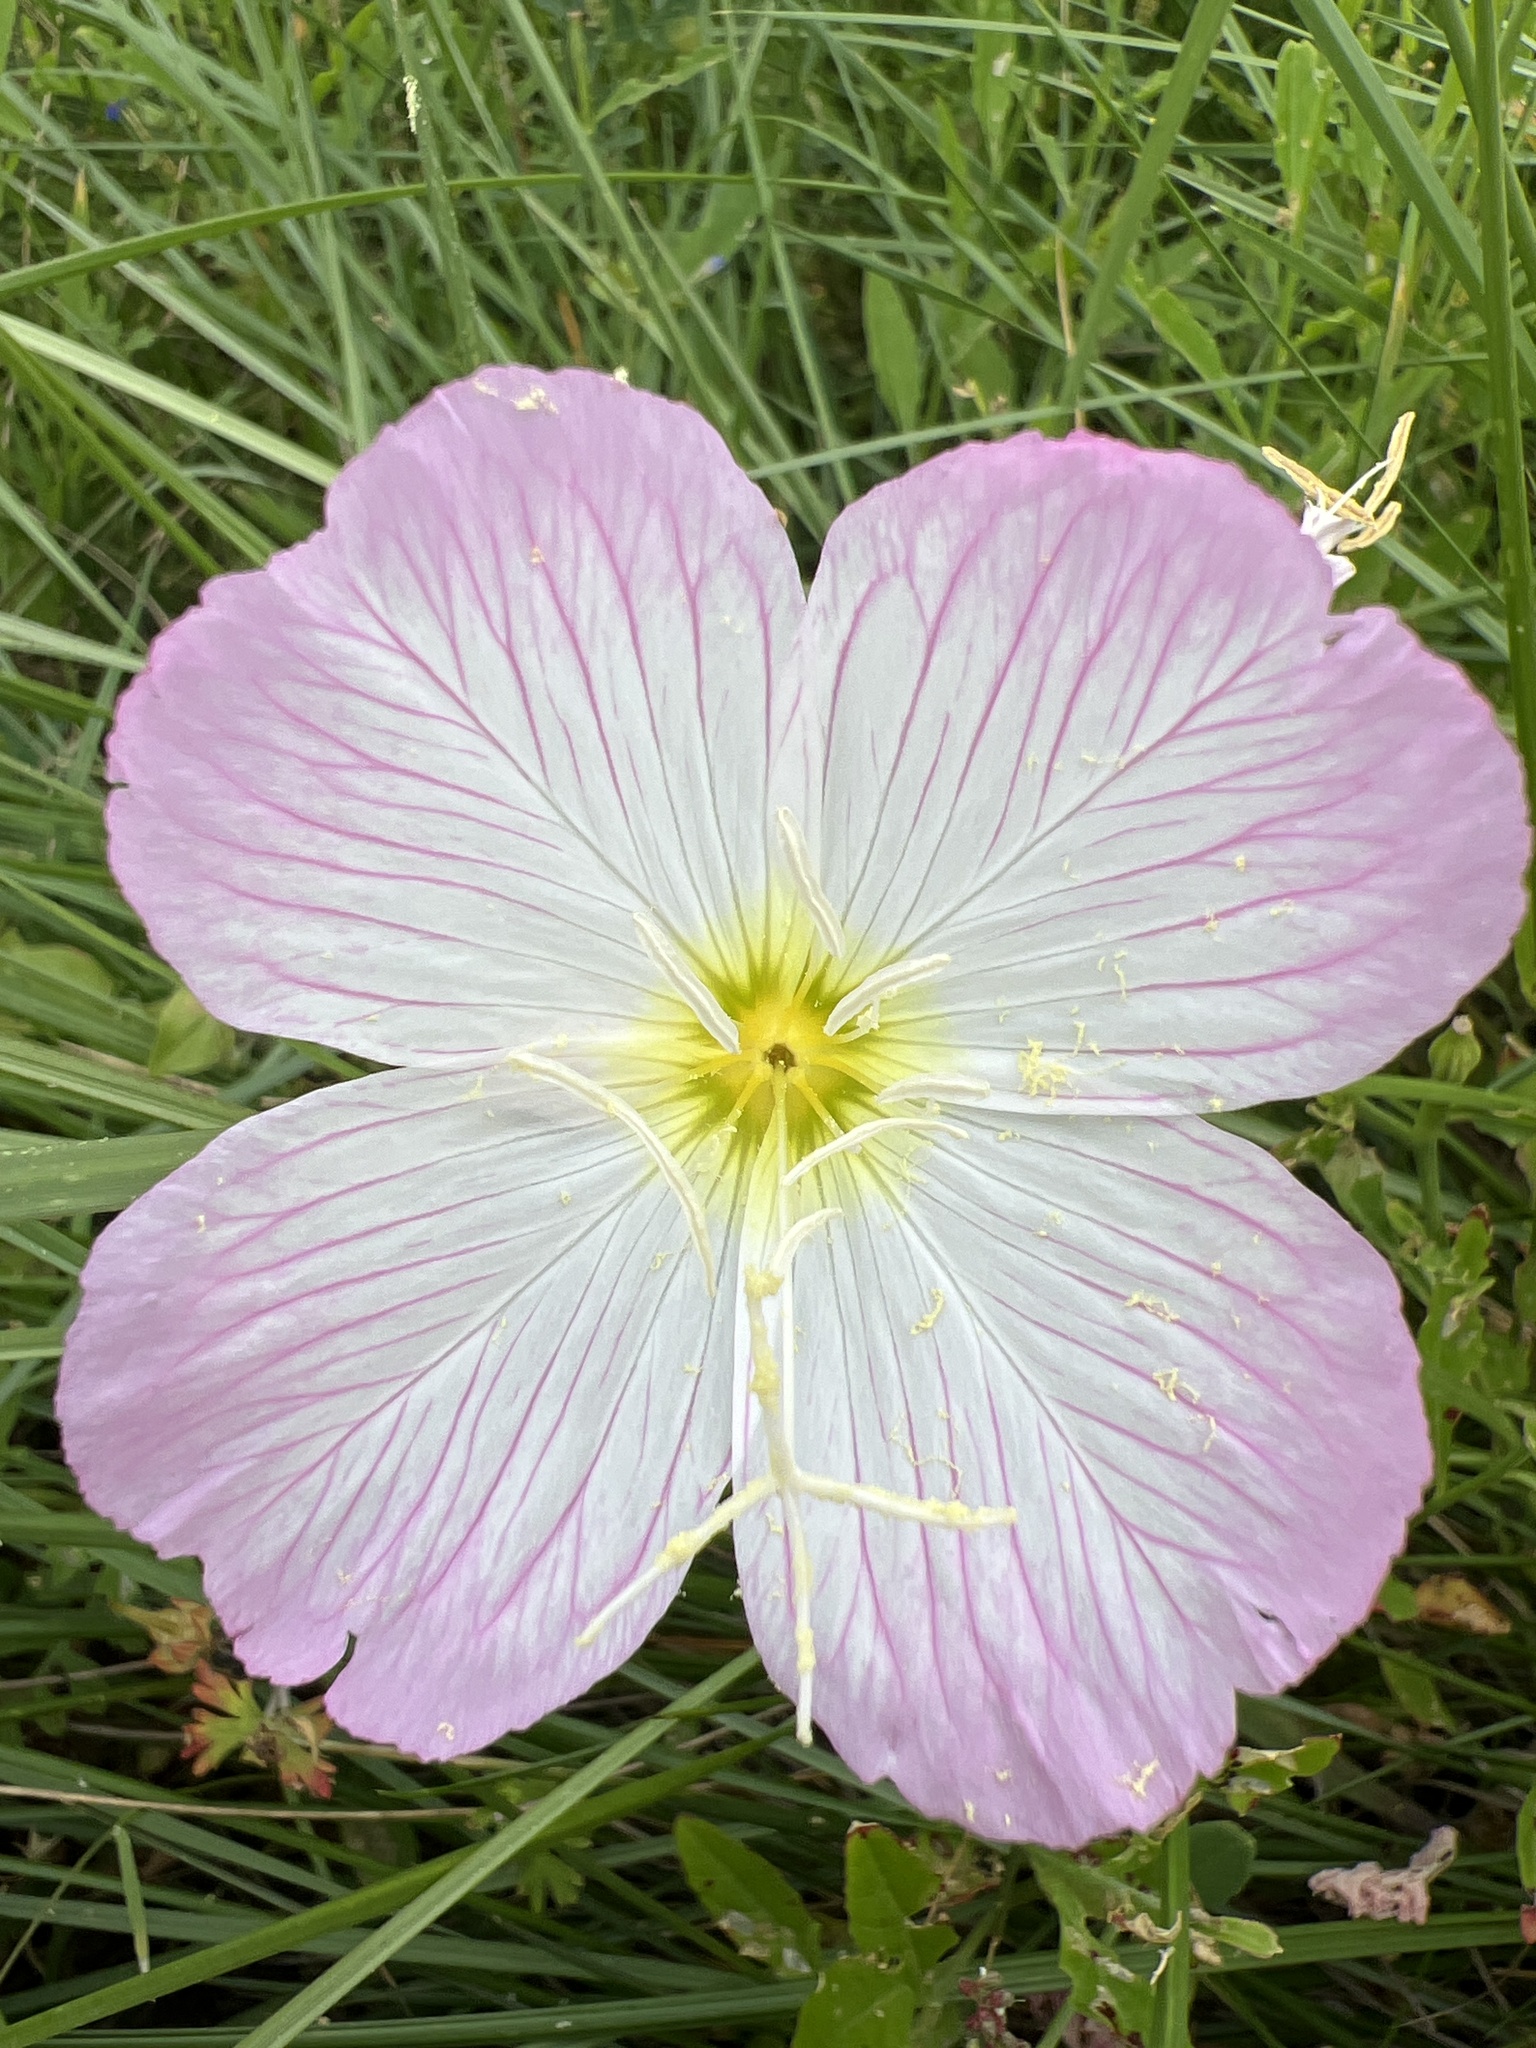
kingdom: Plantae
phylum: Tracheophyta
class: Magnoliopsida
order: Myrtales
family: Onagraceae
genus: Oenothera
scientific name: Oenothera speciosa
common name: White evening-primrose
